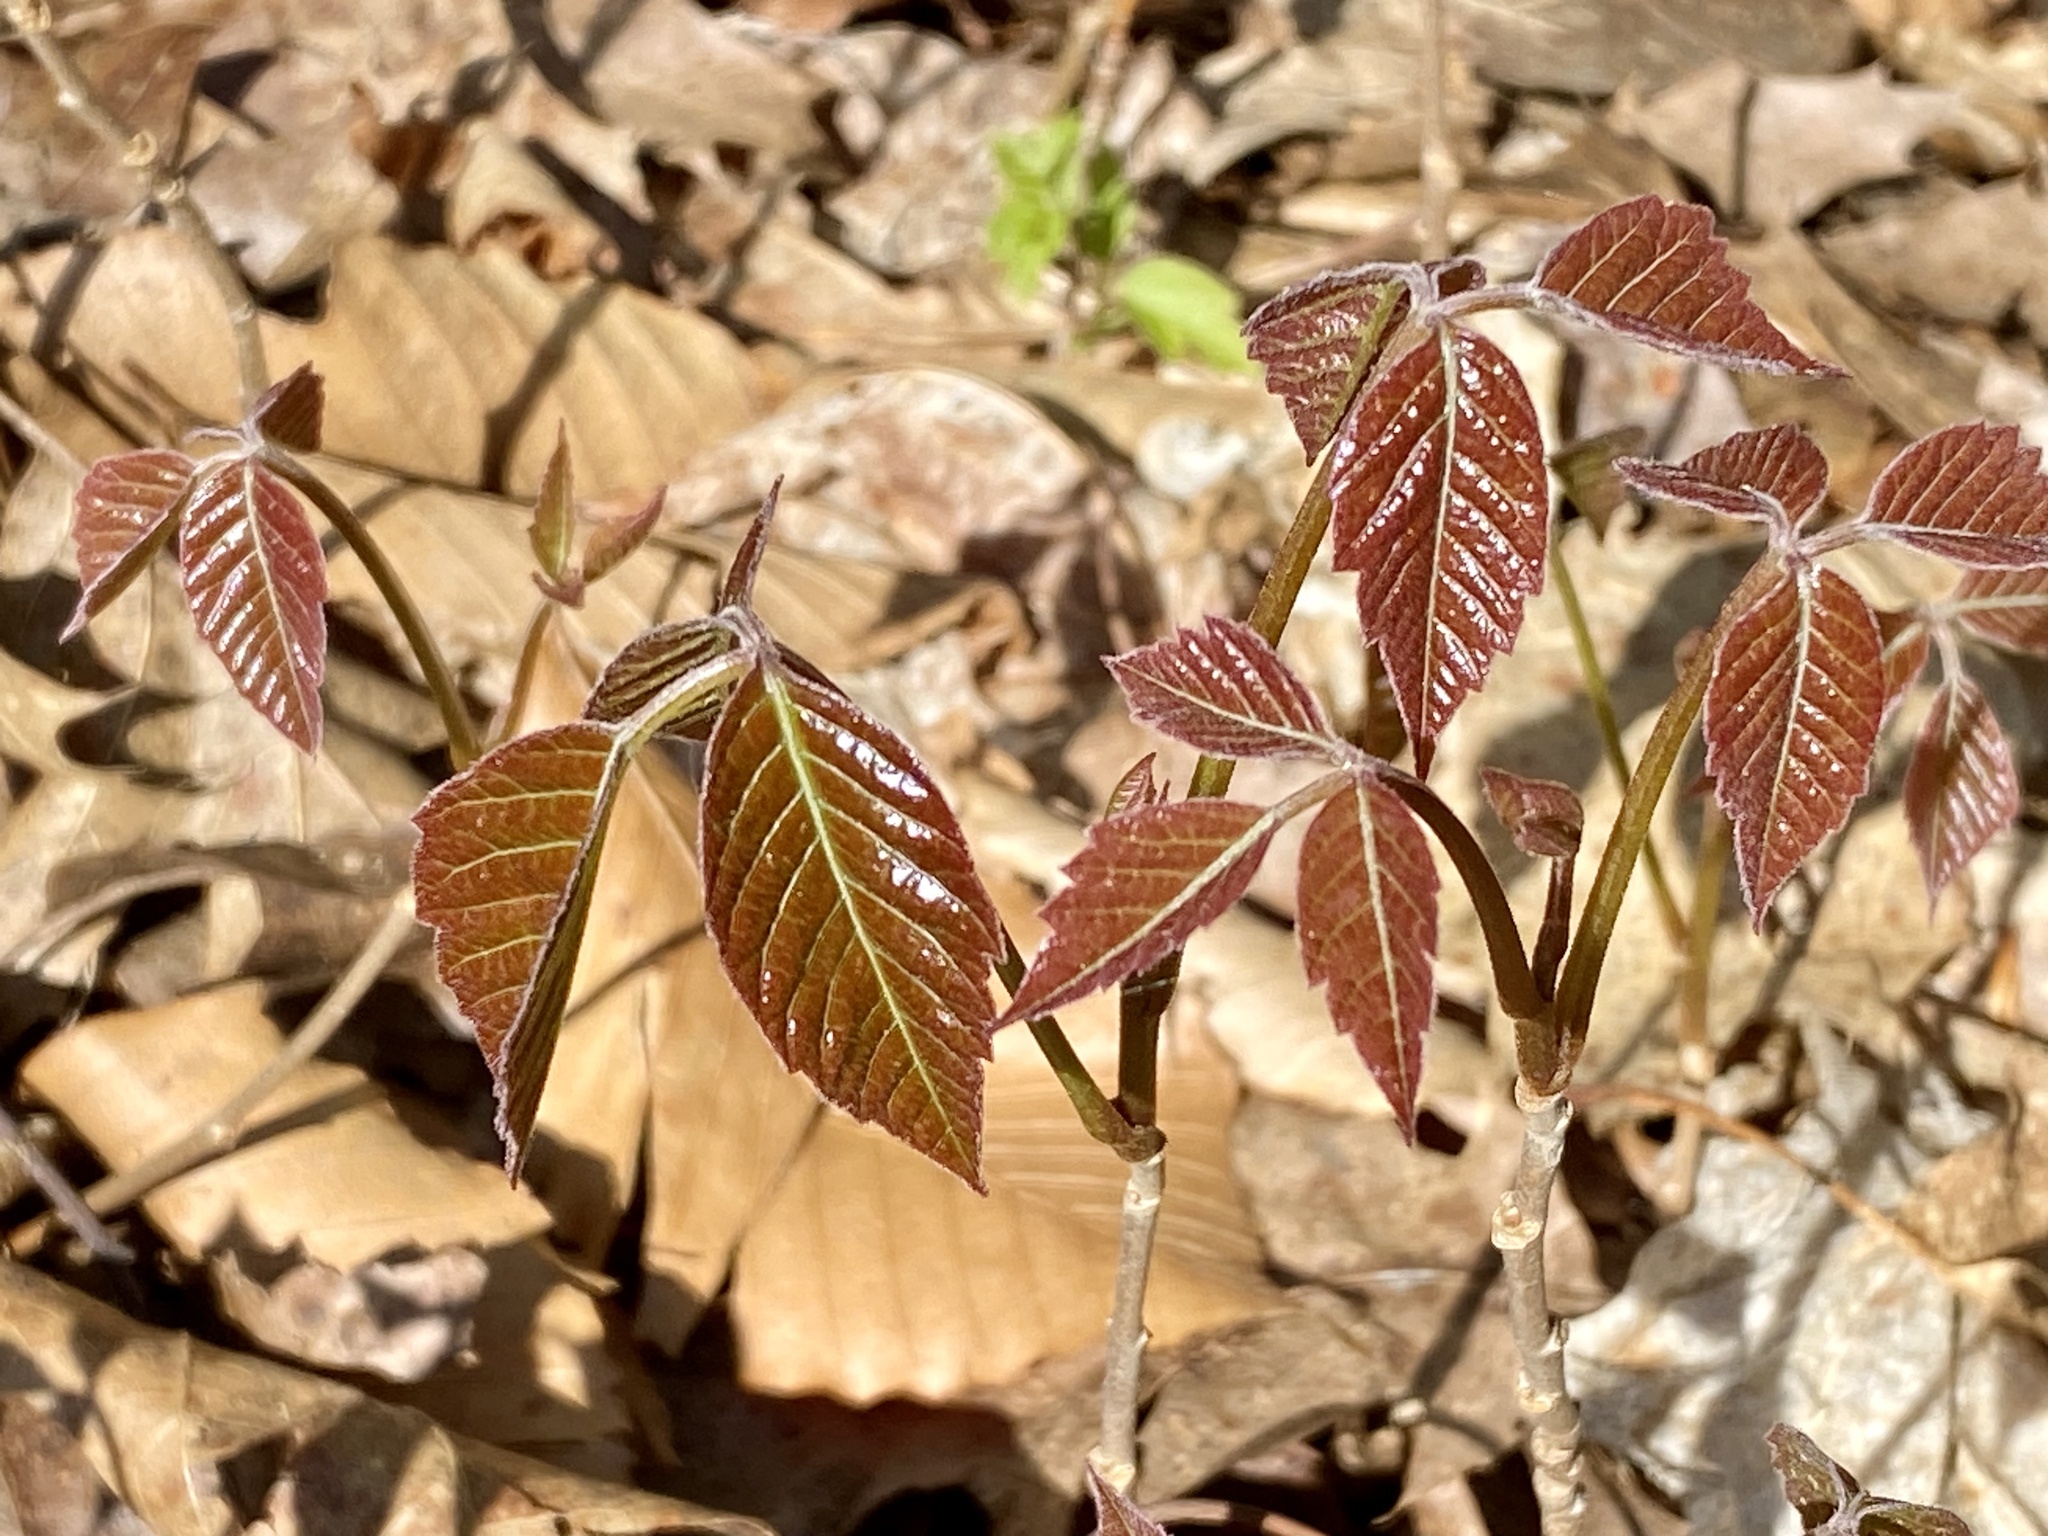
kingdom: Plantae
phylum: Tracheophyta
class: Magnoliopsida
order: Sapindales
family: Anacardiaceae
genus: Toxicodendron
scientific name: Toxicodendron radicans
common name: Poison ivy
